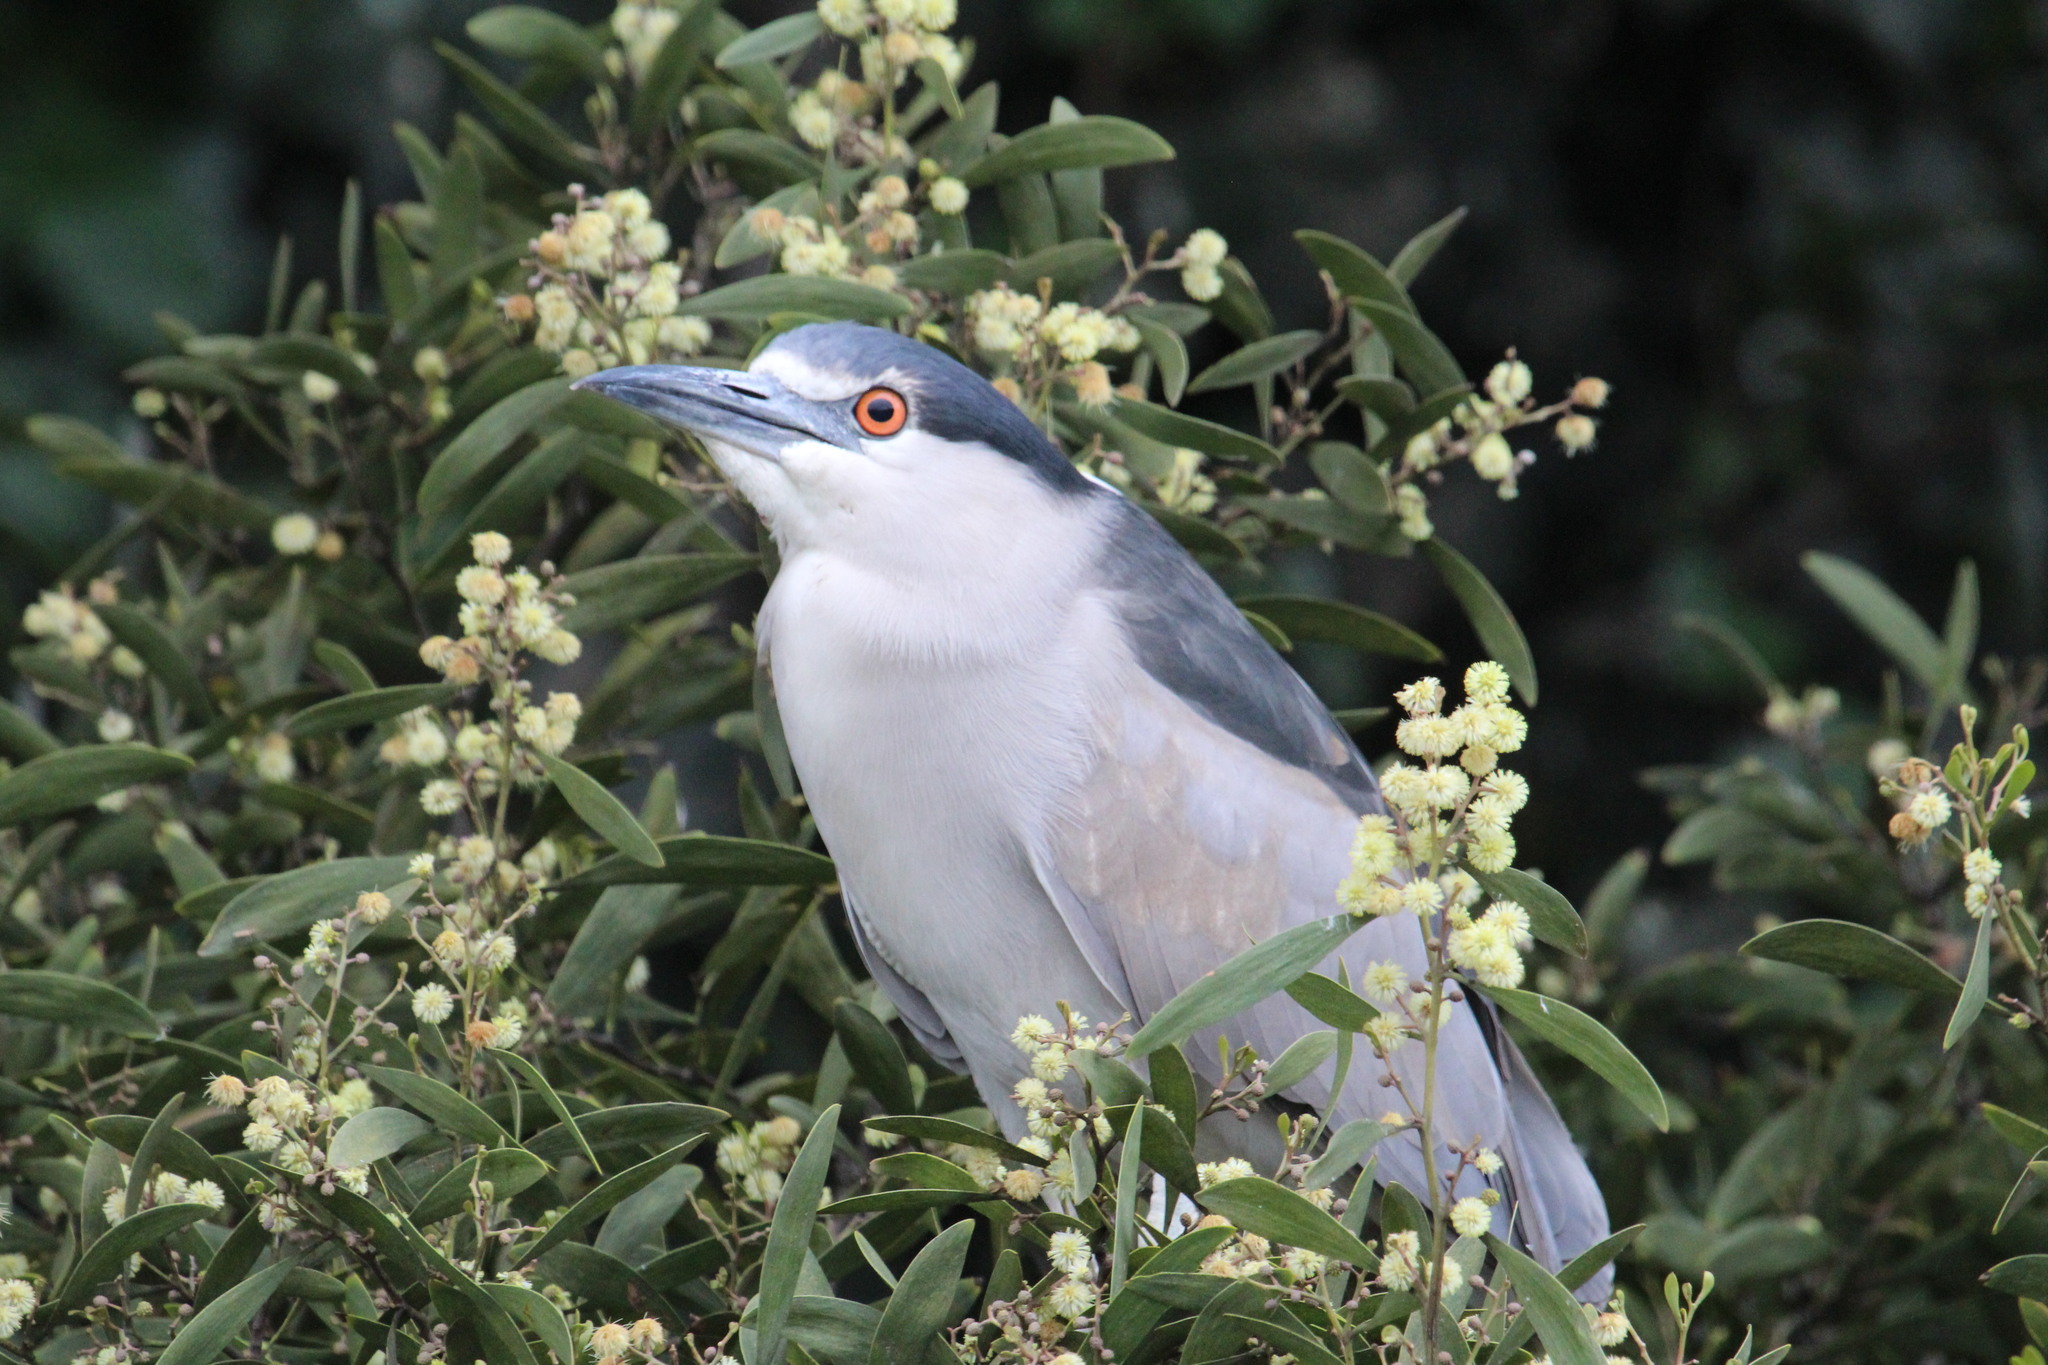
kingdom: Animalia
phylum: Chordata
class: Aves
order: Pelecaniformes
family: Ardeidae
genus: Nycticorax
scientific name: Nycticorax nycticorax
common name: Black-crowned night heron
